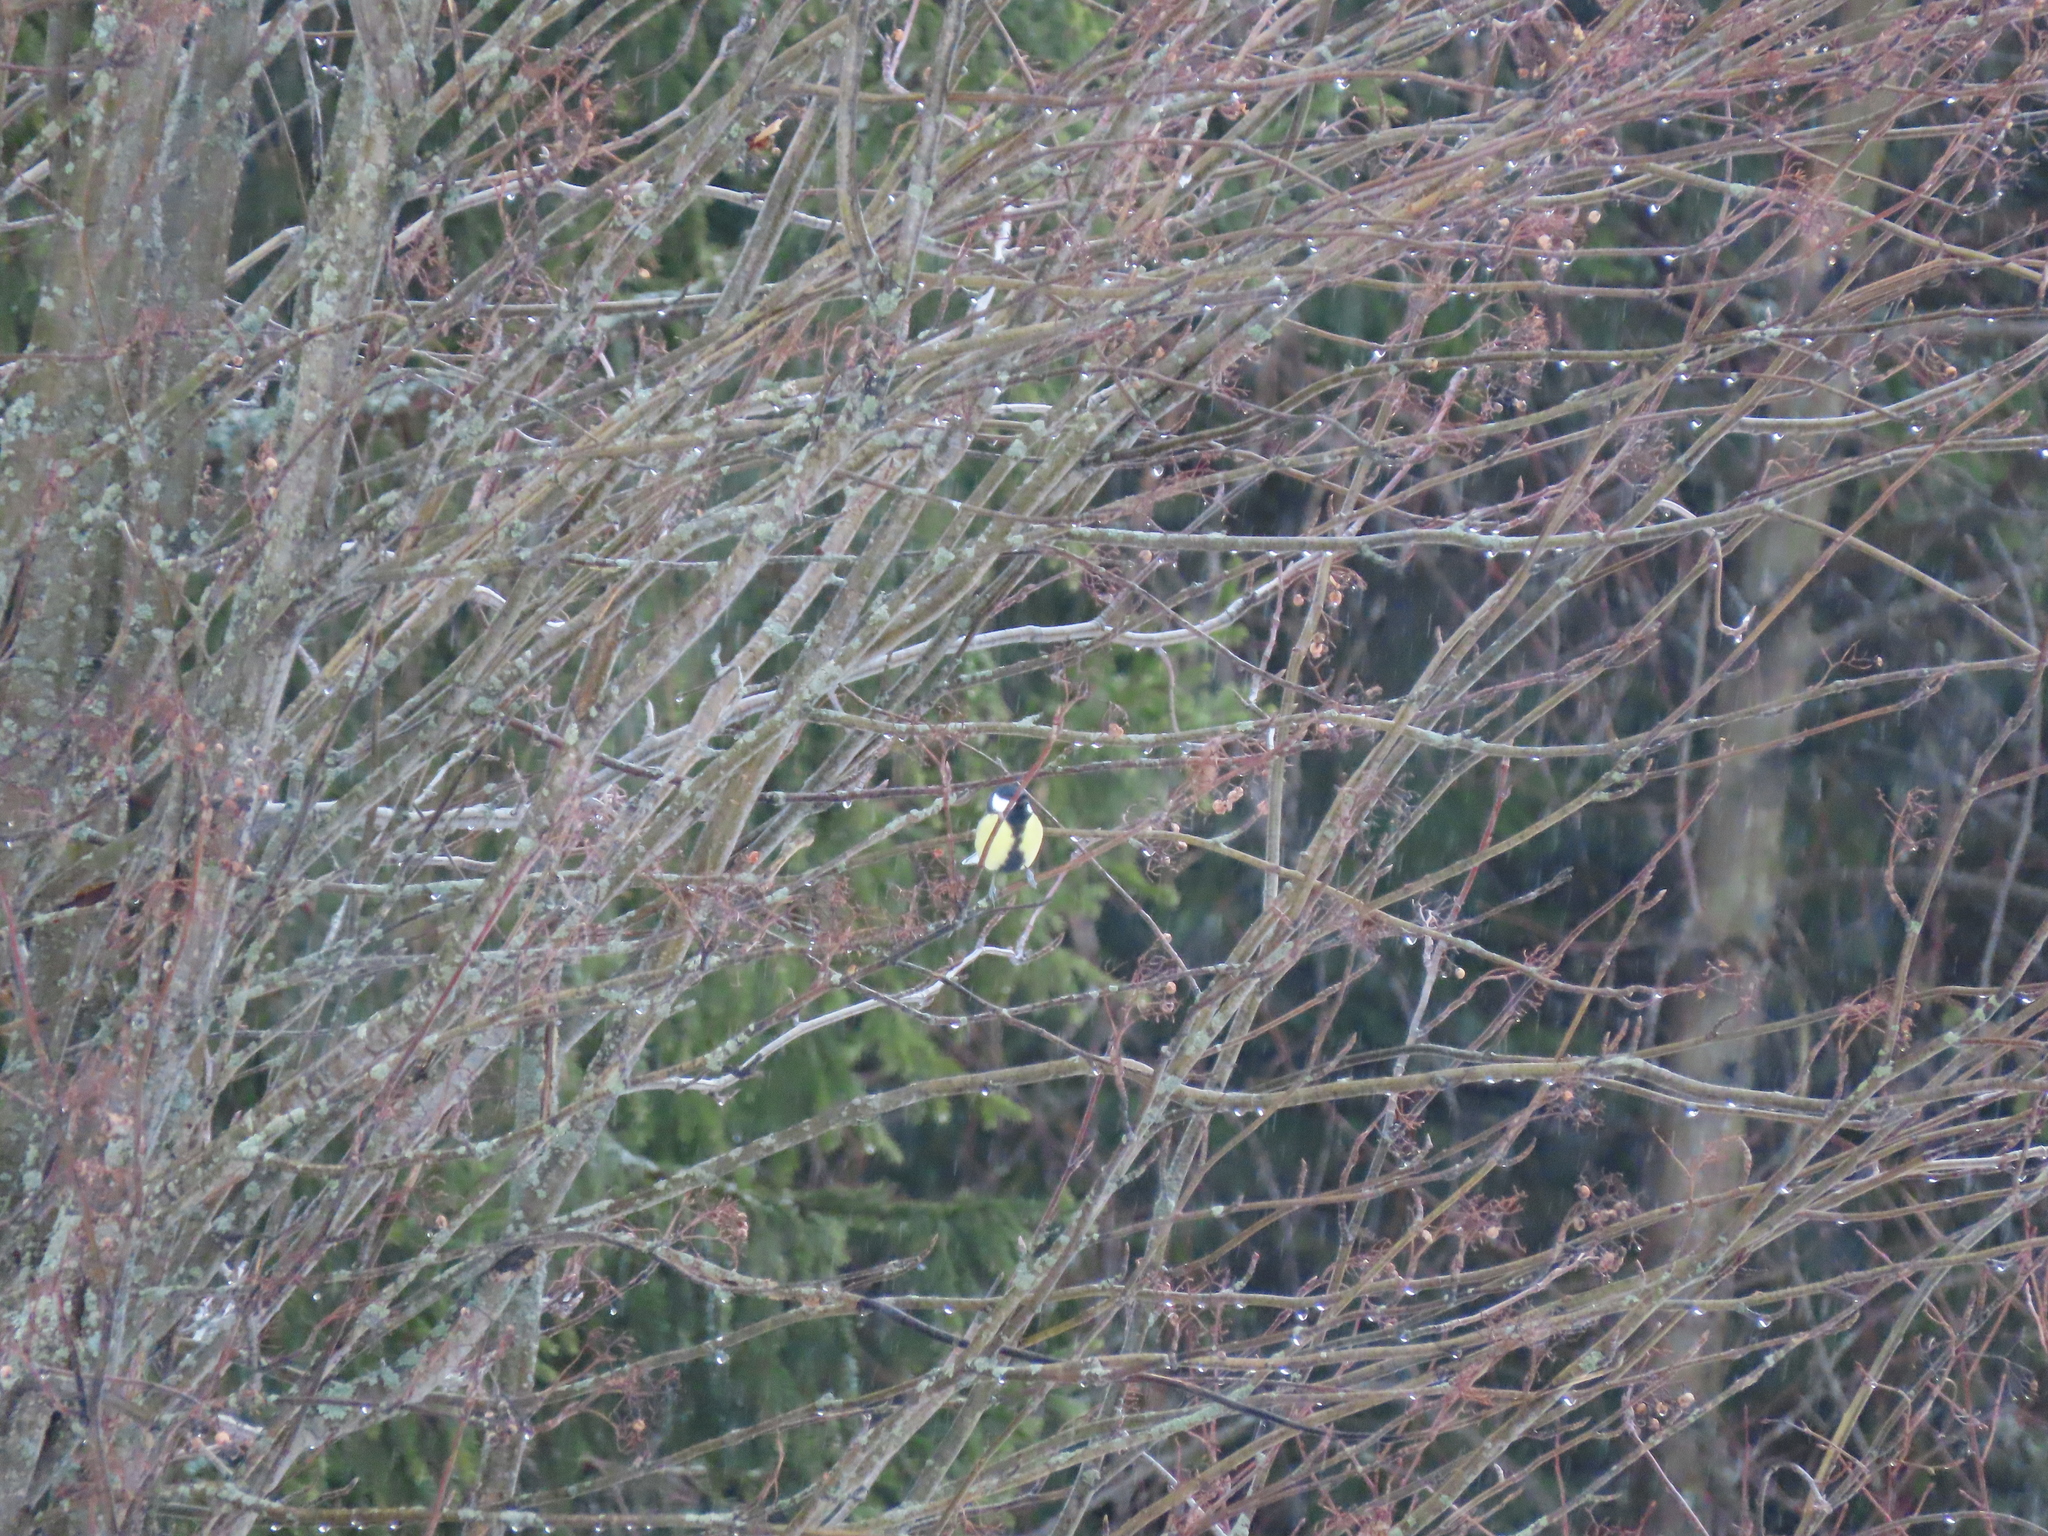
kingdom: Animalia
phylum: Chordata
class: Aves
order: Passeriformes
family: Paridae
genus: Parus
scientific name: Parus major
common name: Great tit
